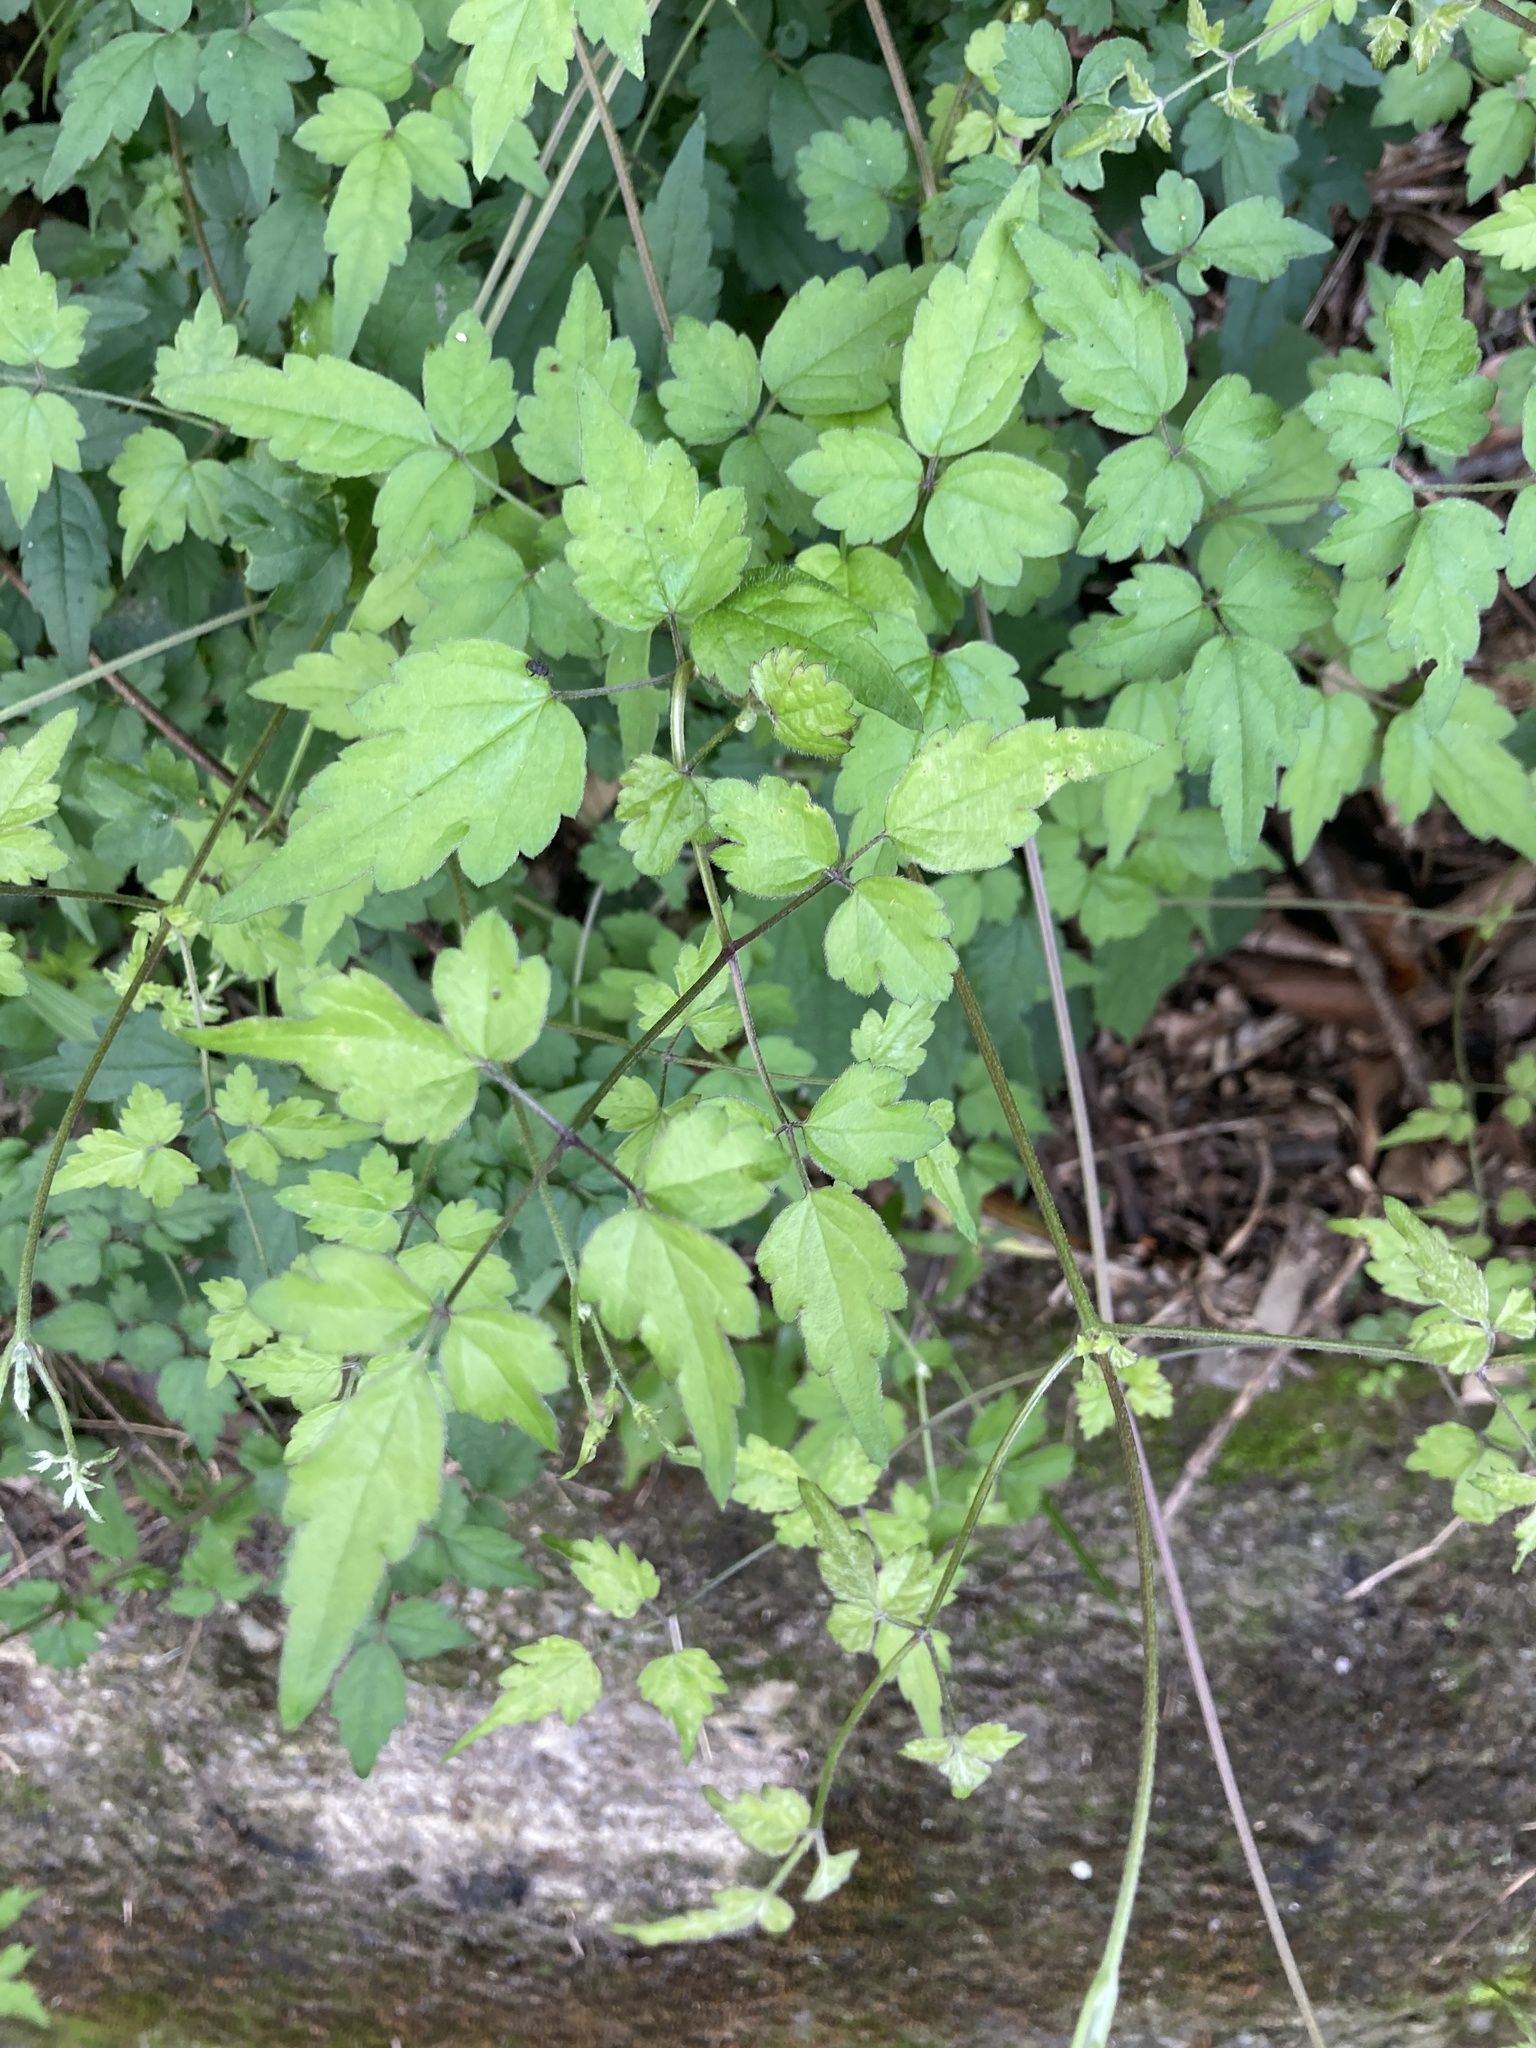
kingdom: Plantae
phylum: Tracheophyta
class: Magnoliopsida
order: Ranunculales
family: Ranunculaceae
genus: Clematis
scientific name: Clematis grata
